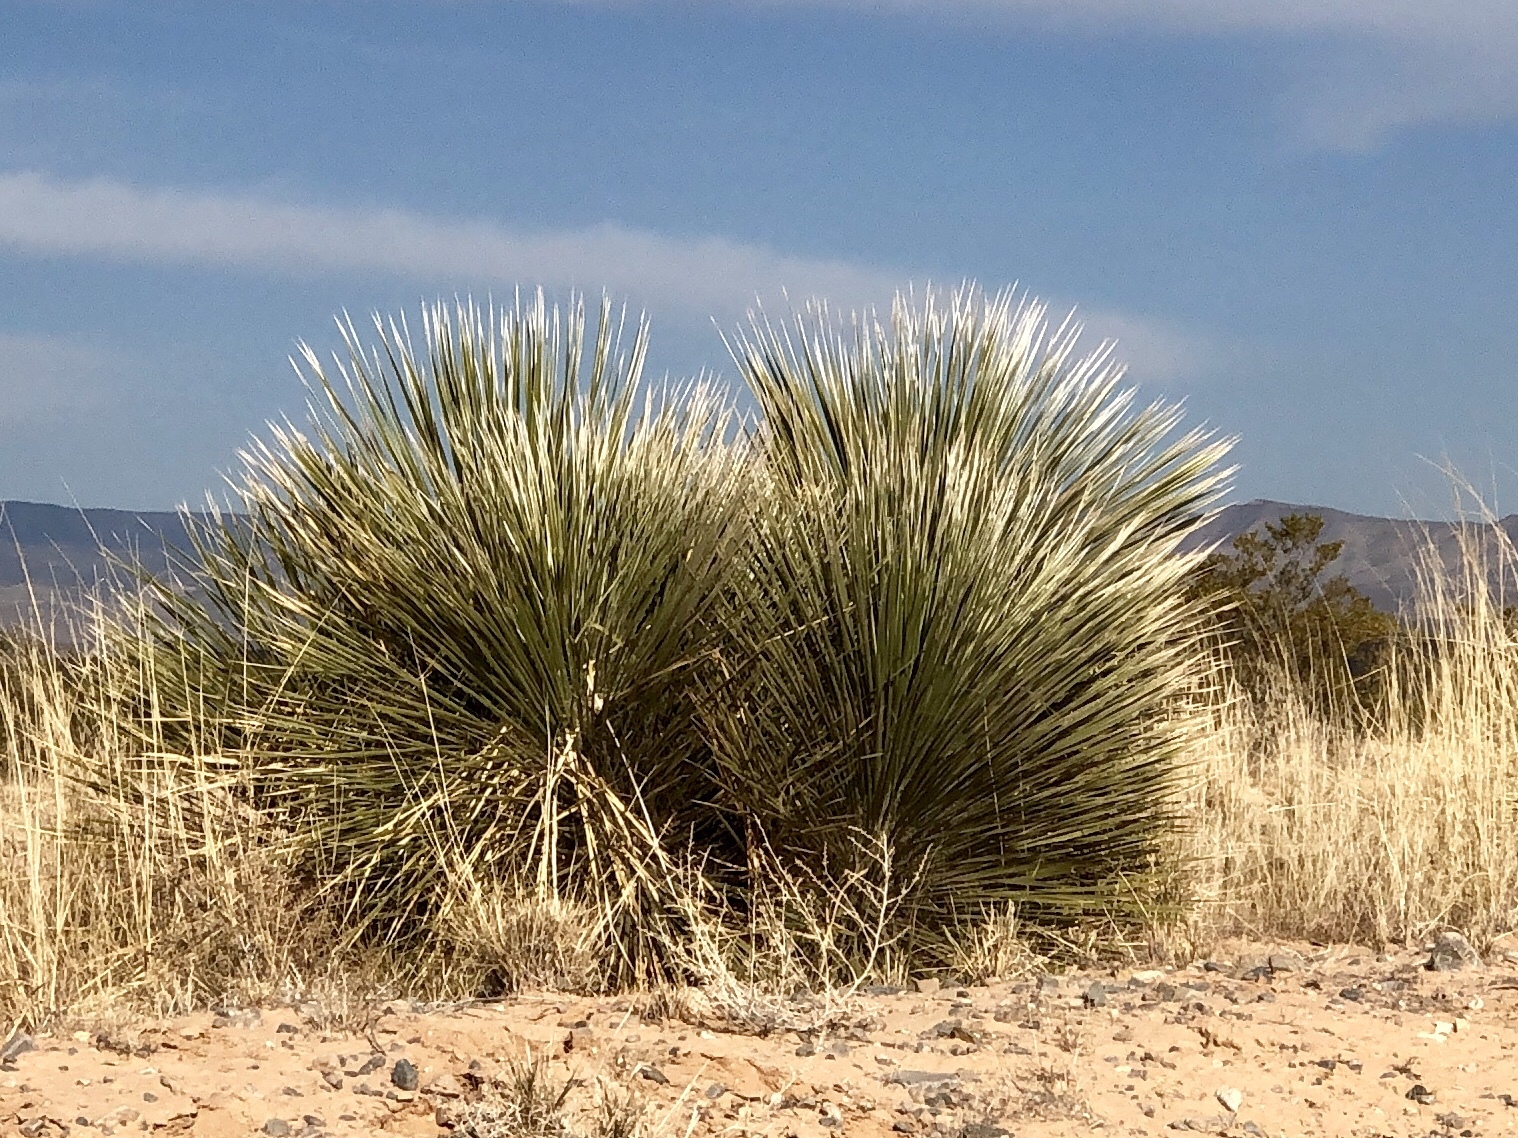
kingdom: Plantae
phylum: Tracheophyta
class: Liliopsida
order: Asparagales
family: Asparagaceae
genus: Yucca
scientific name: Yucca elata
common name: Palmella
